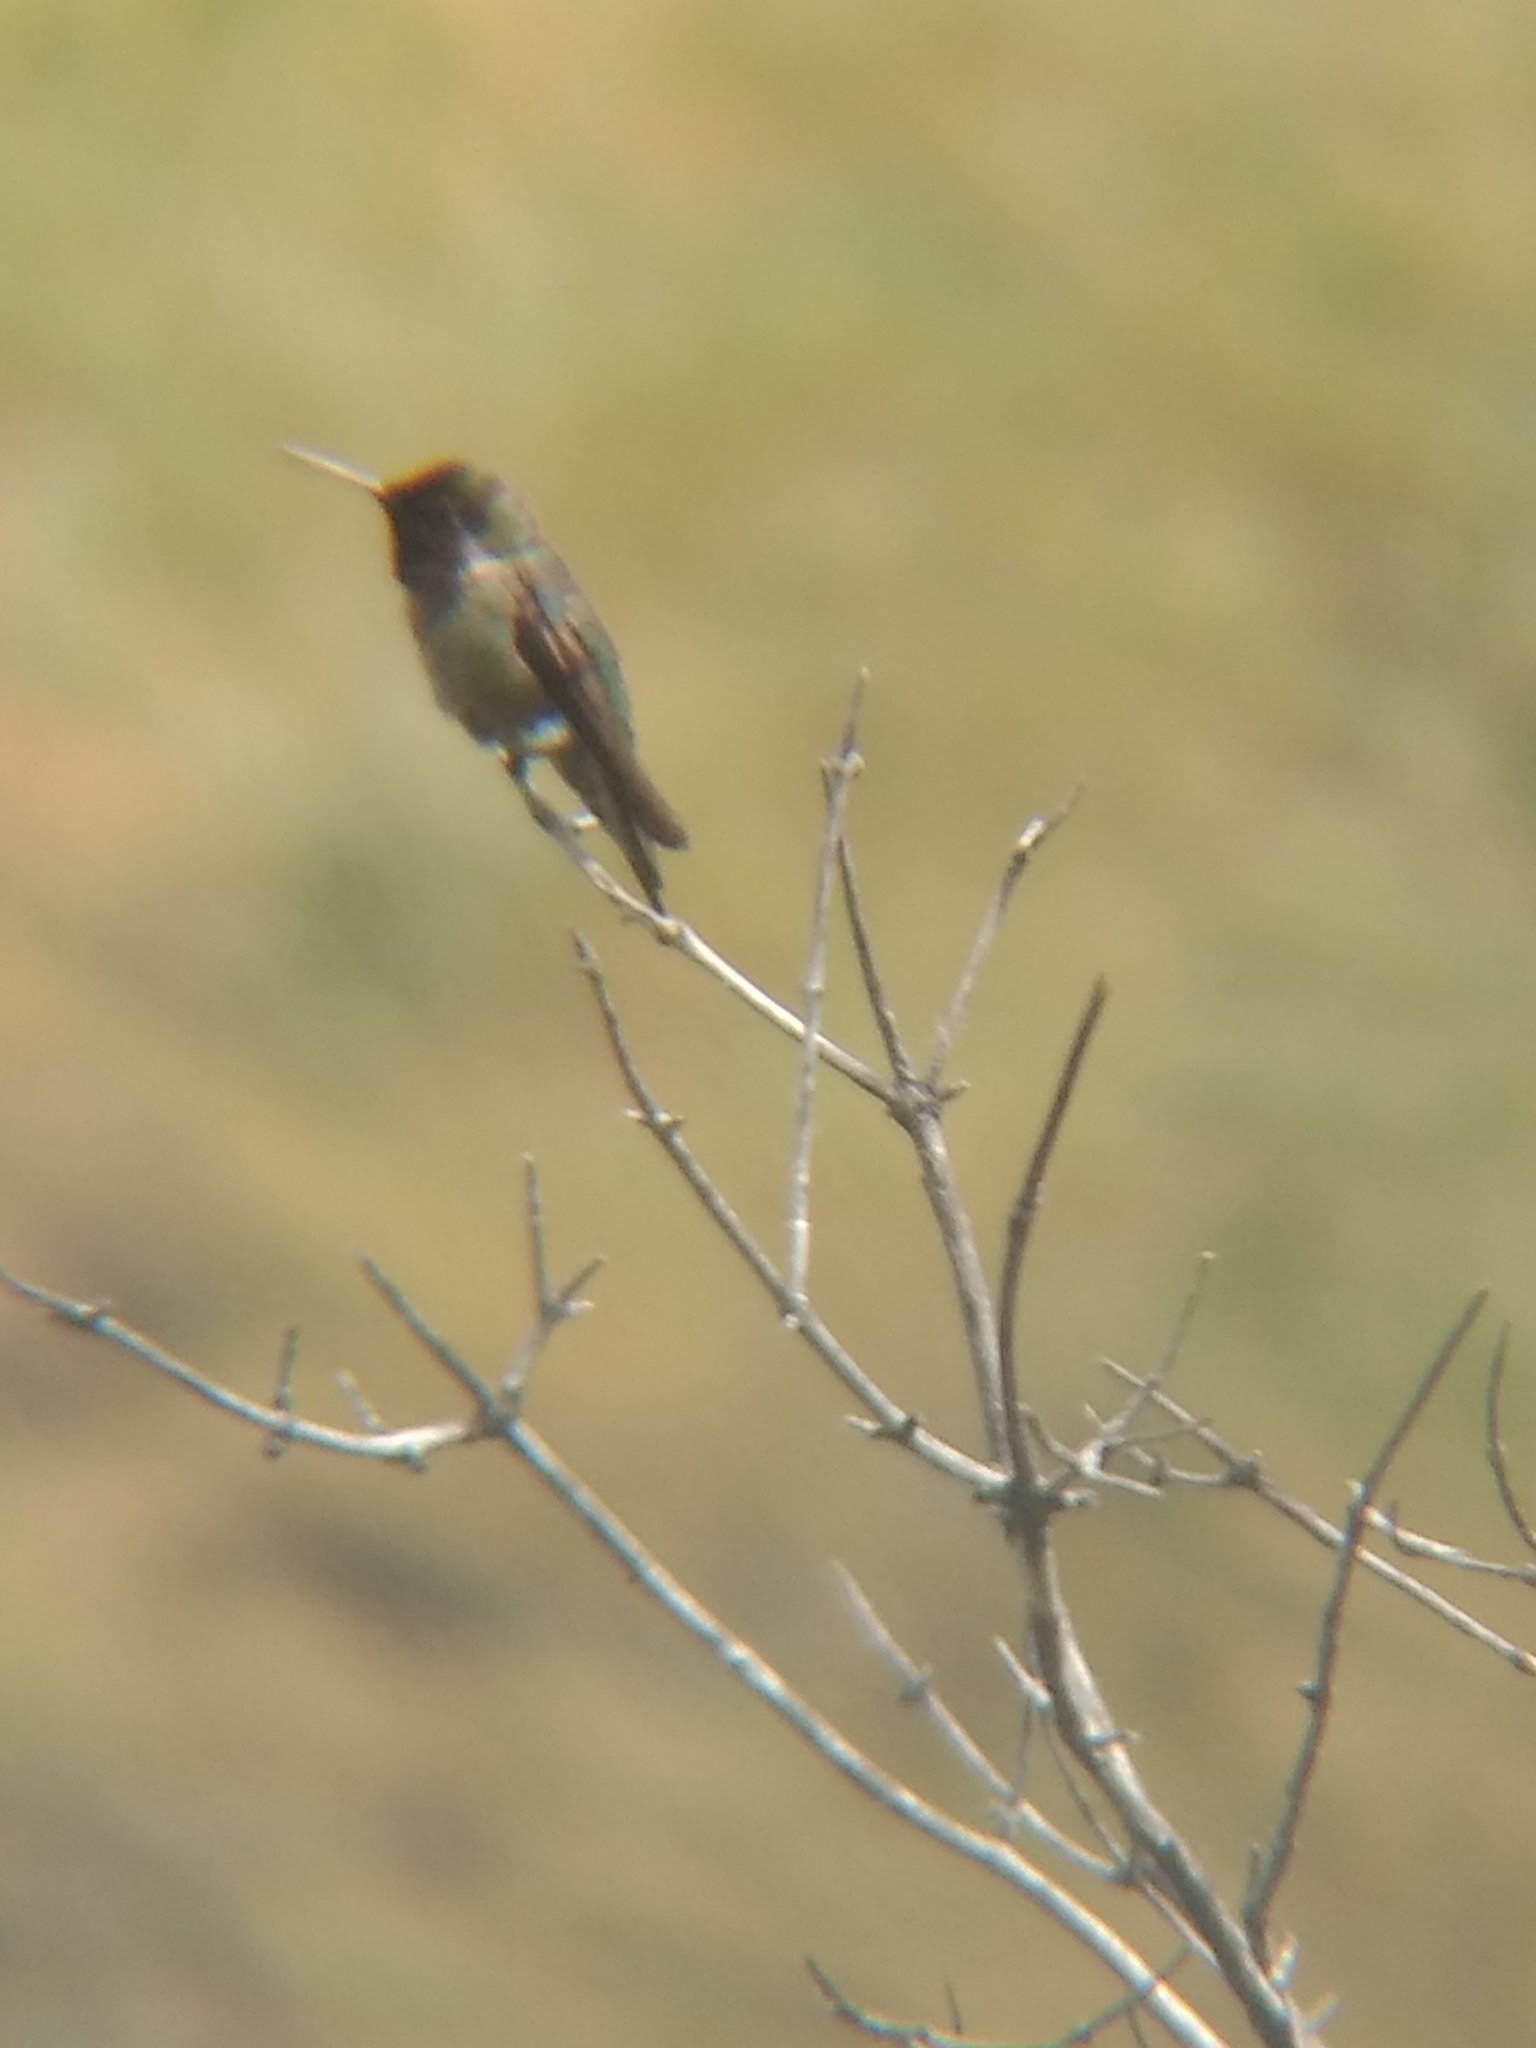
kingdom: Animalia
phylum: Chordata
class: Aves
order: Apodiformes
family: Trochilidae
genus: Calypte
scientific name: Calypte anna
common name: Anna's hummingbird
